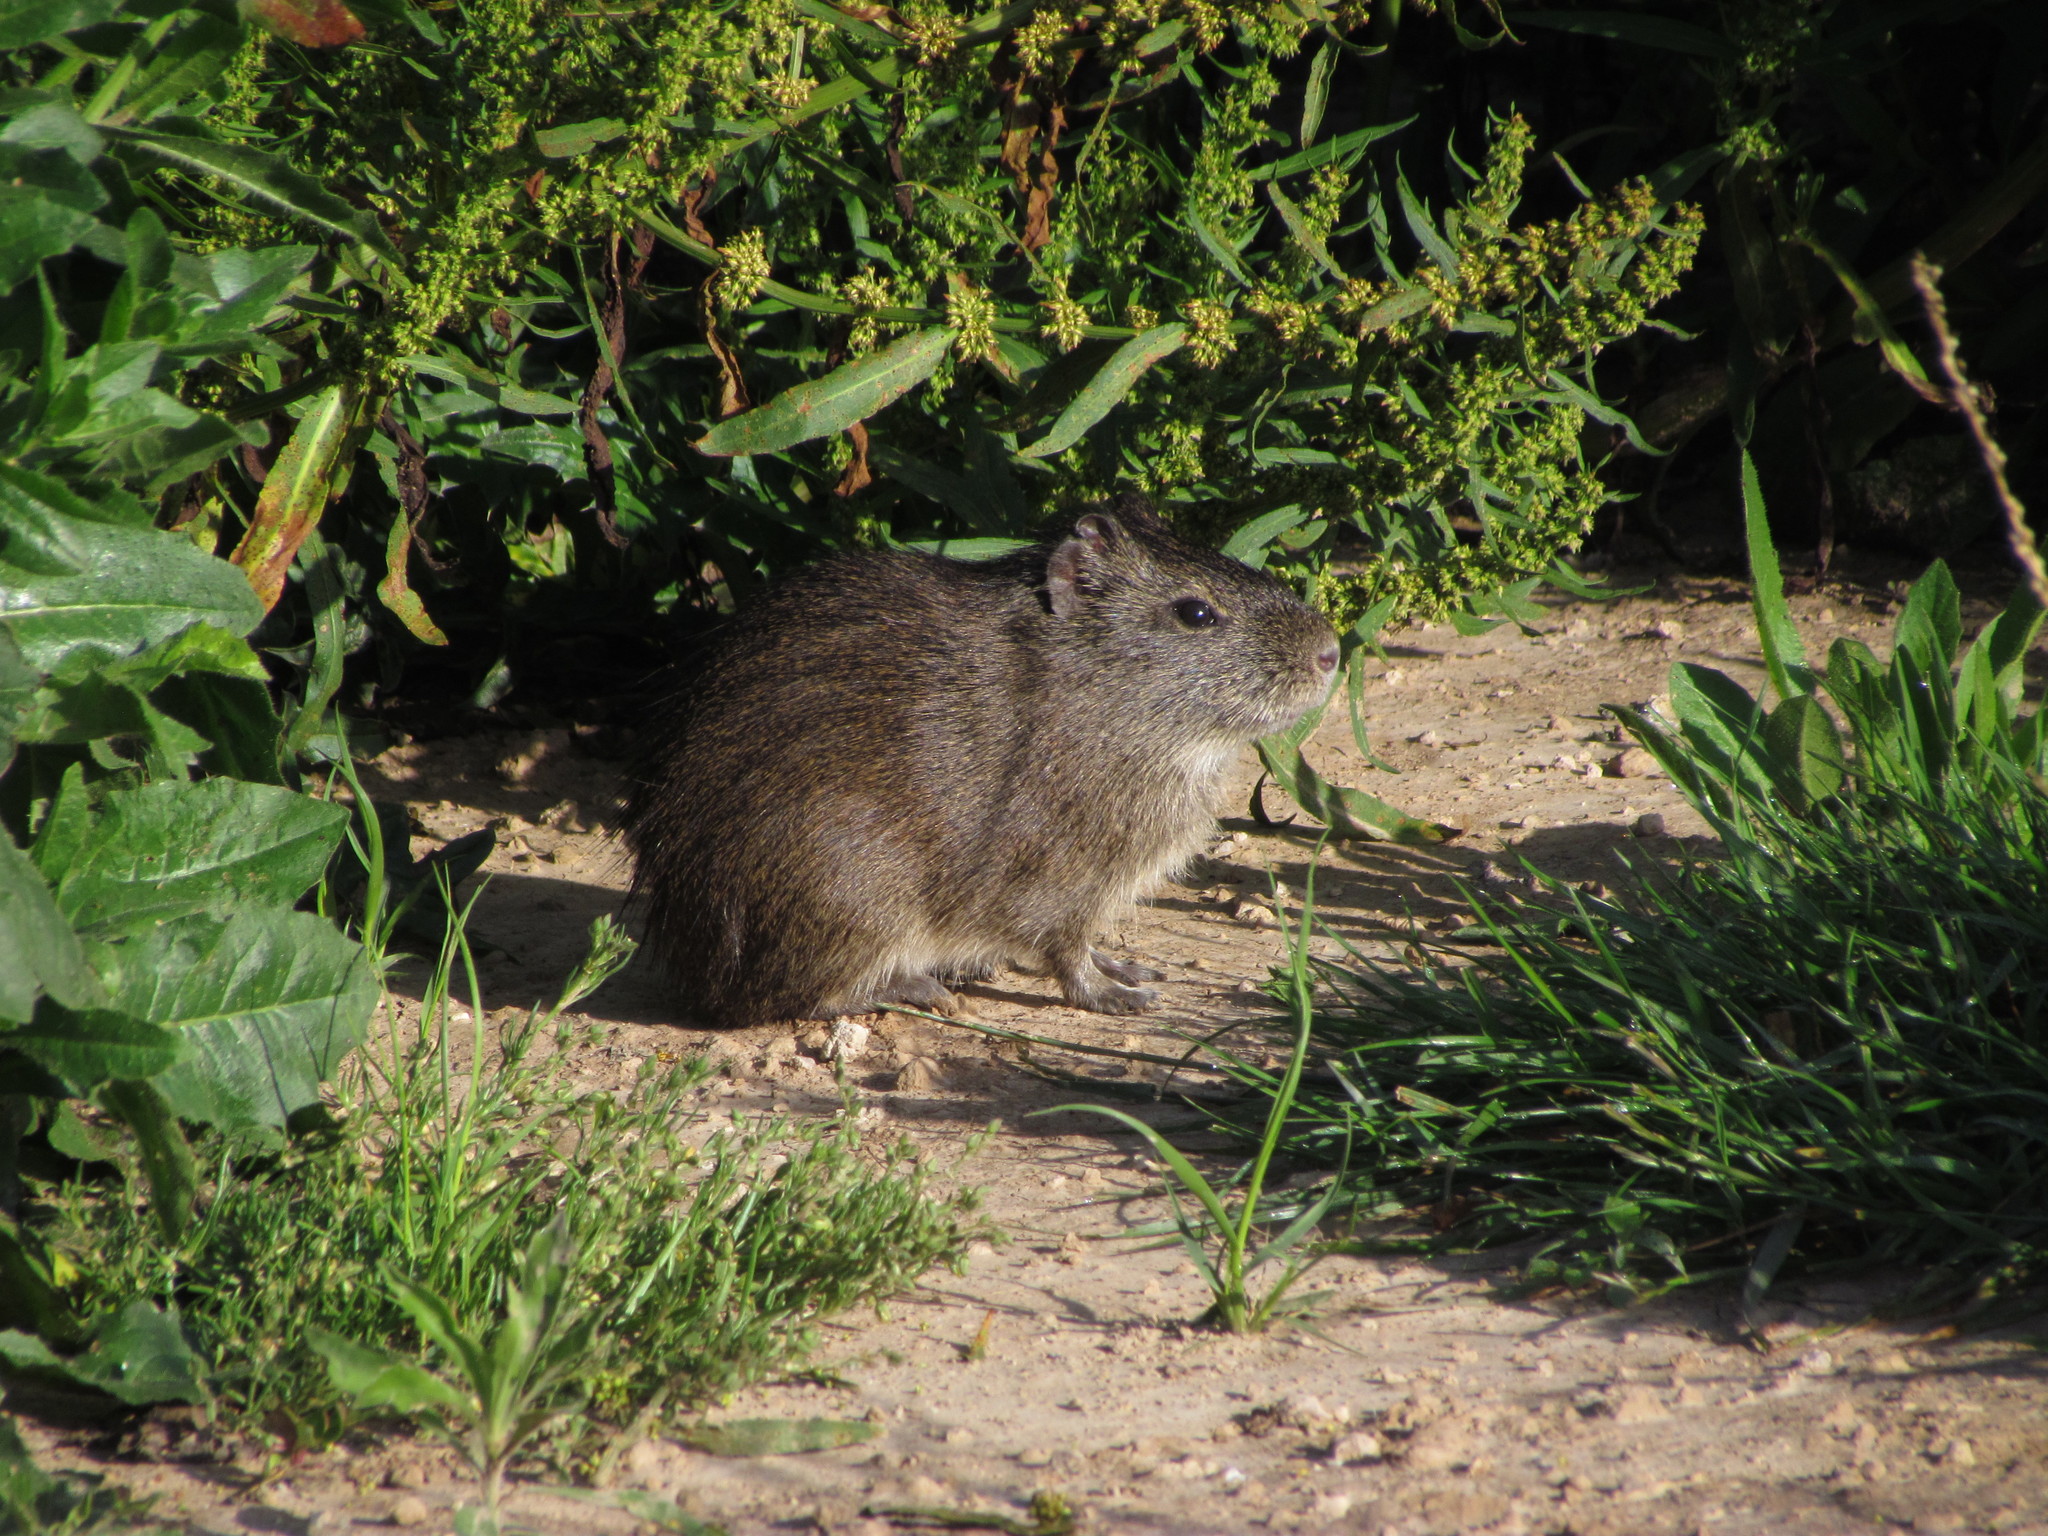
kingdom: Animalia
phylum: Chordata
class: Mammalia
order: Rodentia
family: Caviidae
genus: Cavia
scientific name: Cavia aperea
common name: Brazilian guinea pig
